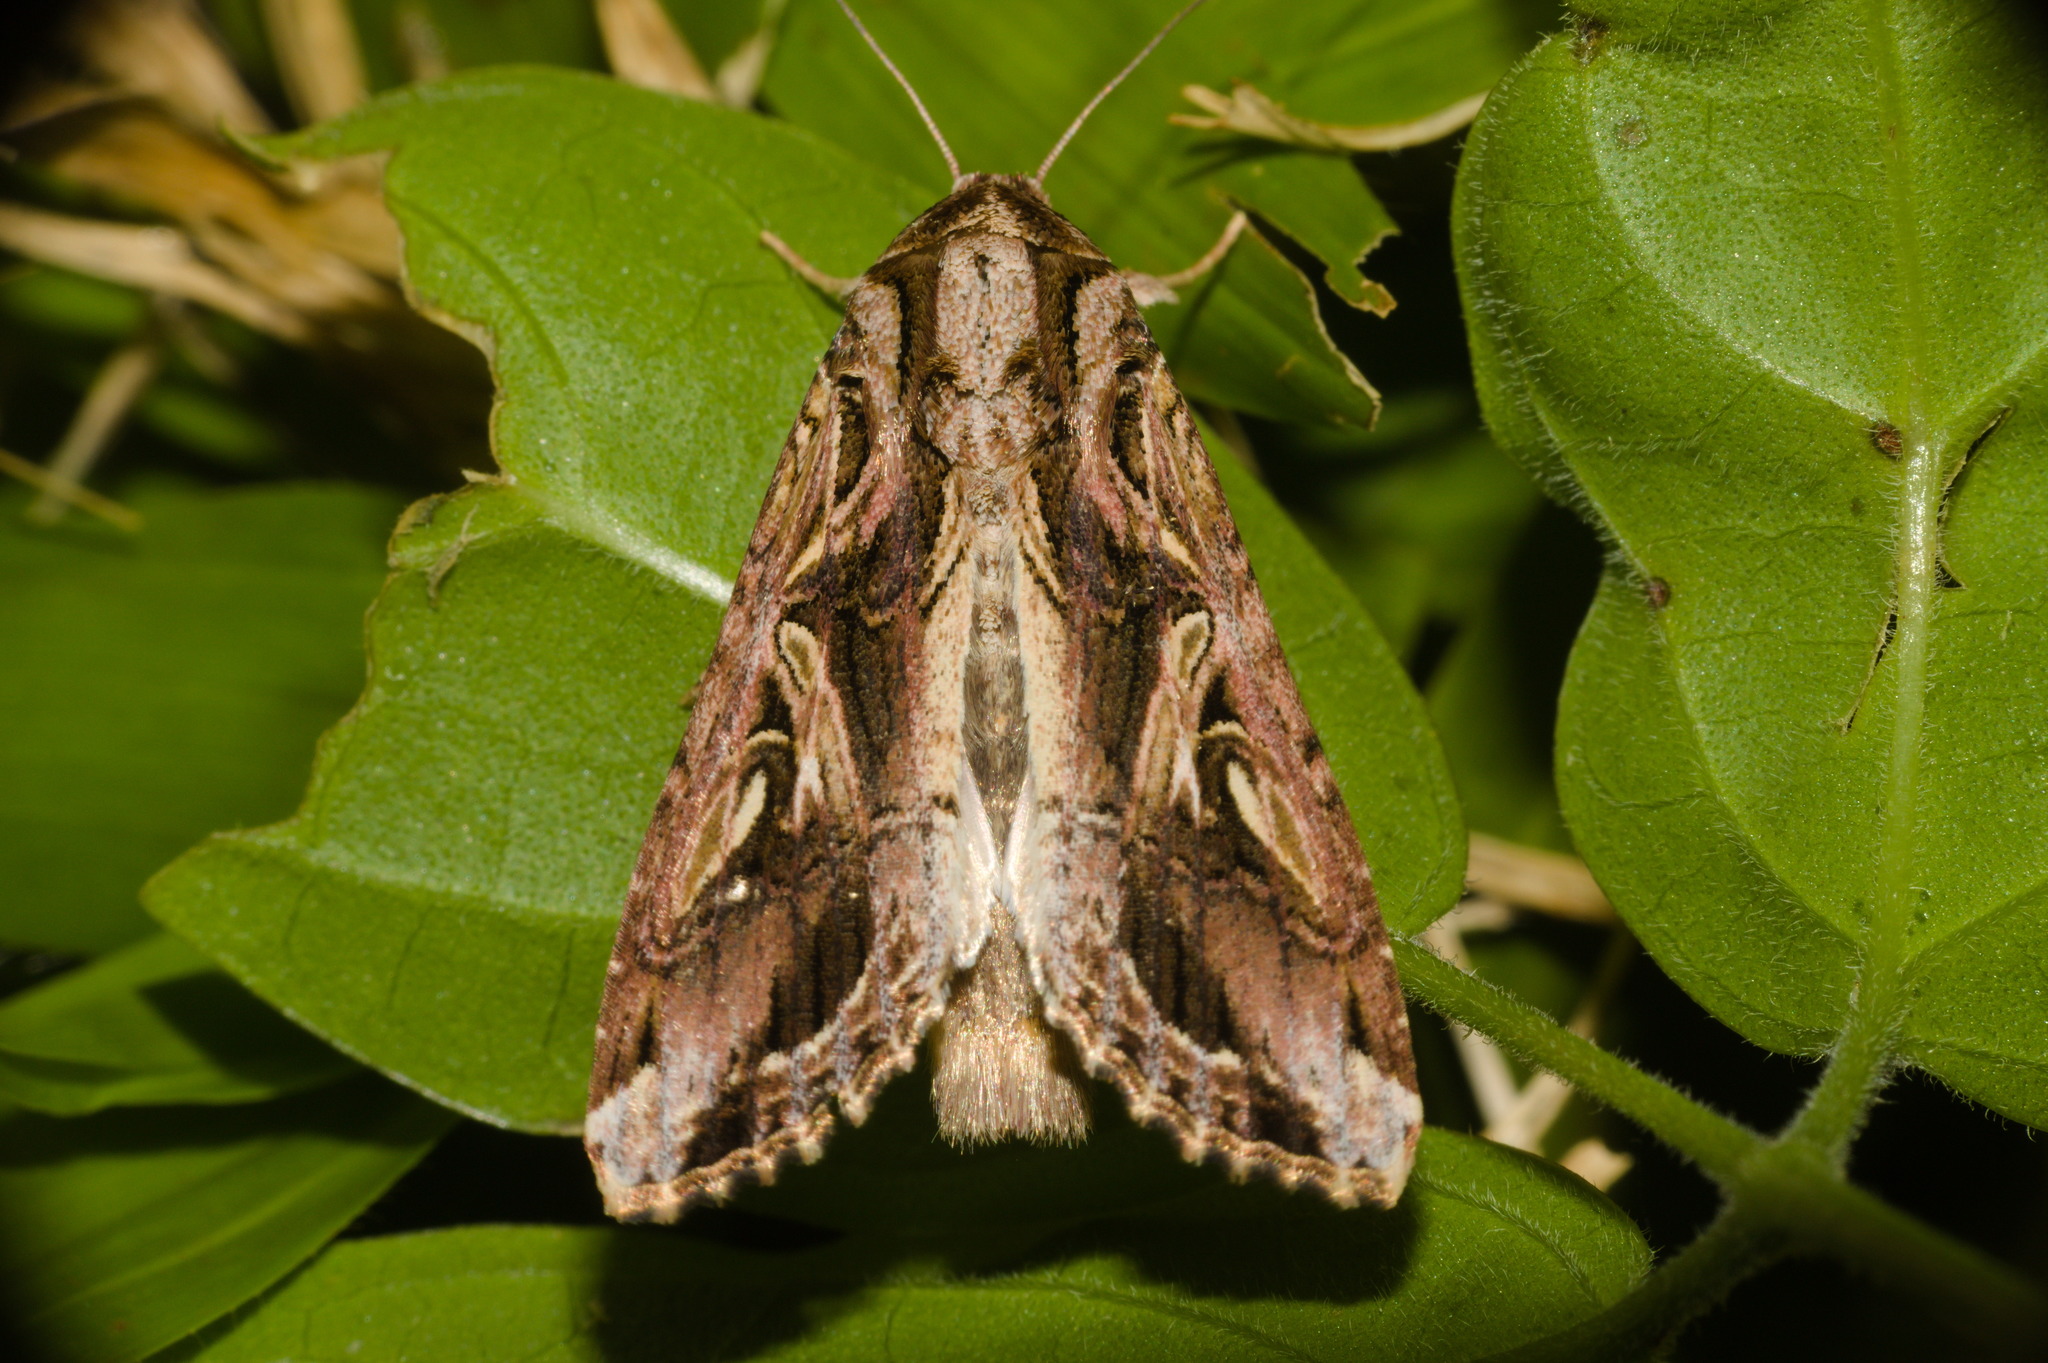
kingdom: Animalia
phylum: Arthropoda
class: Insecta
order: Lepidoptera
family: Noctuidae
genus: Spodoptera
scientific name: Spodoptera dolichos
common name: Sweetpotato armyworm
